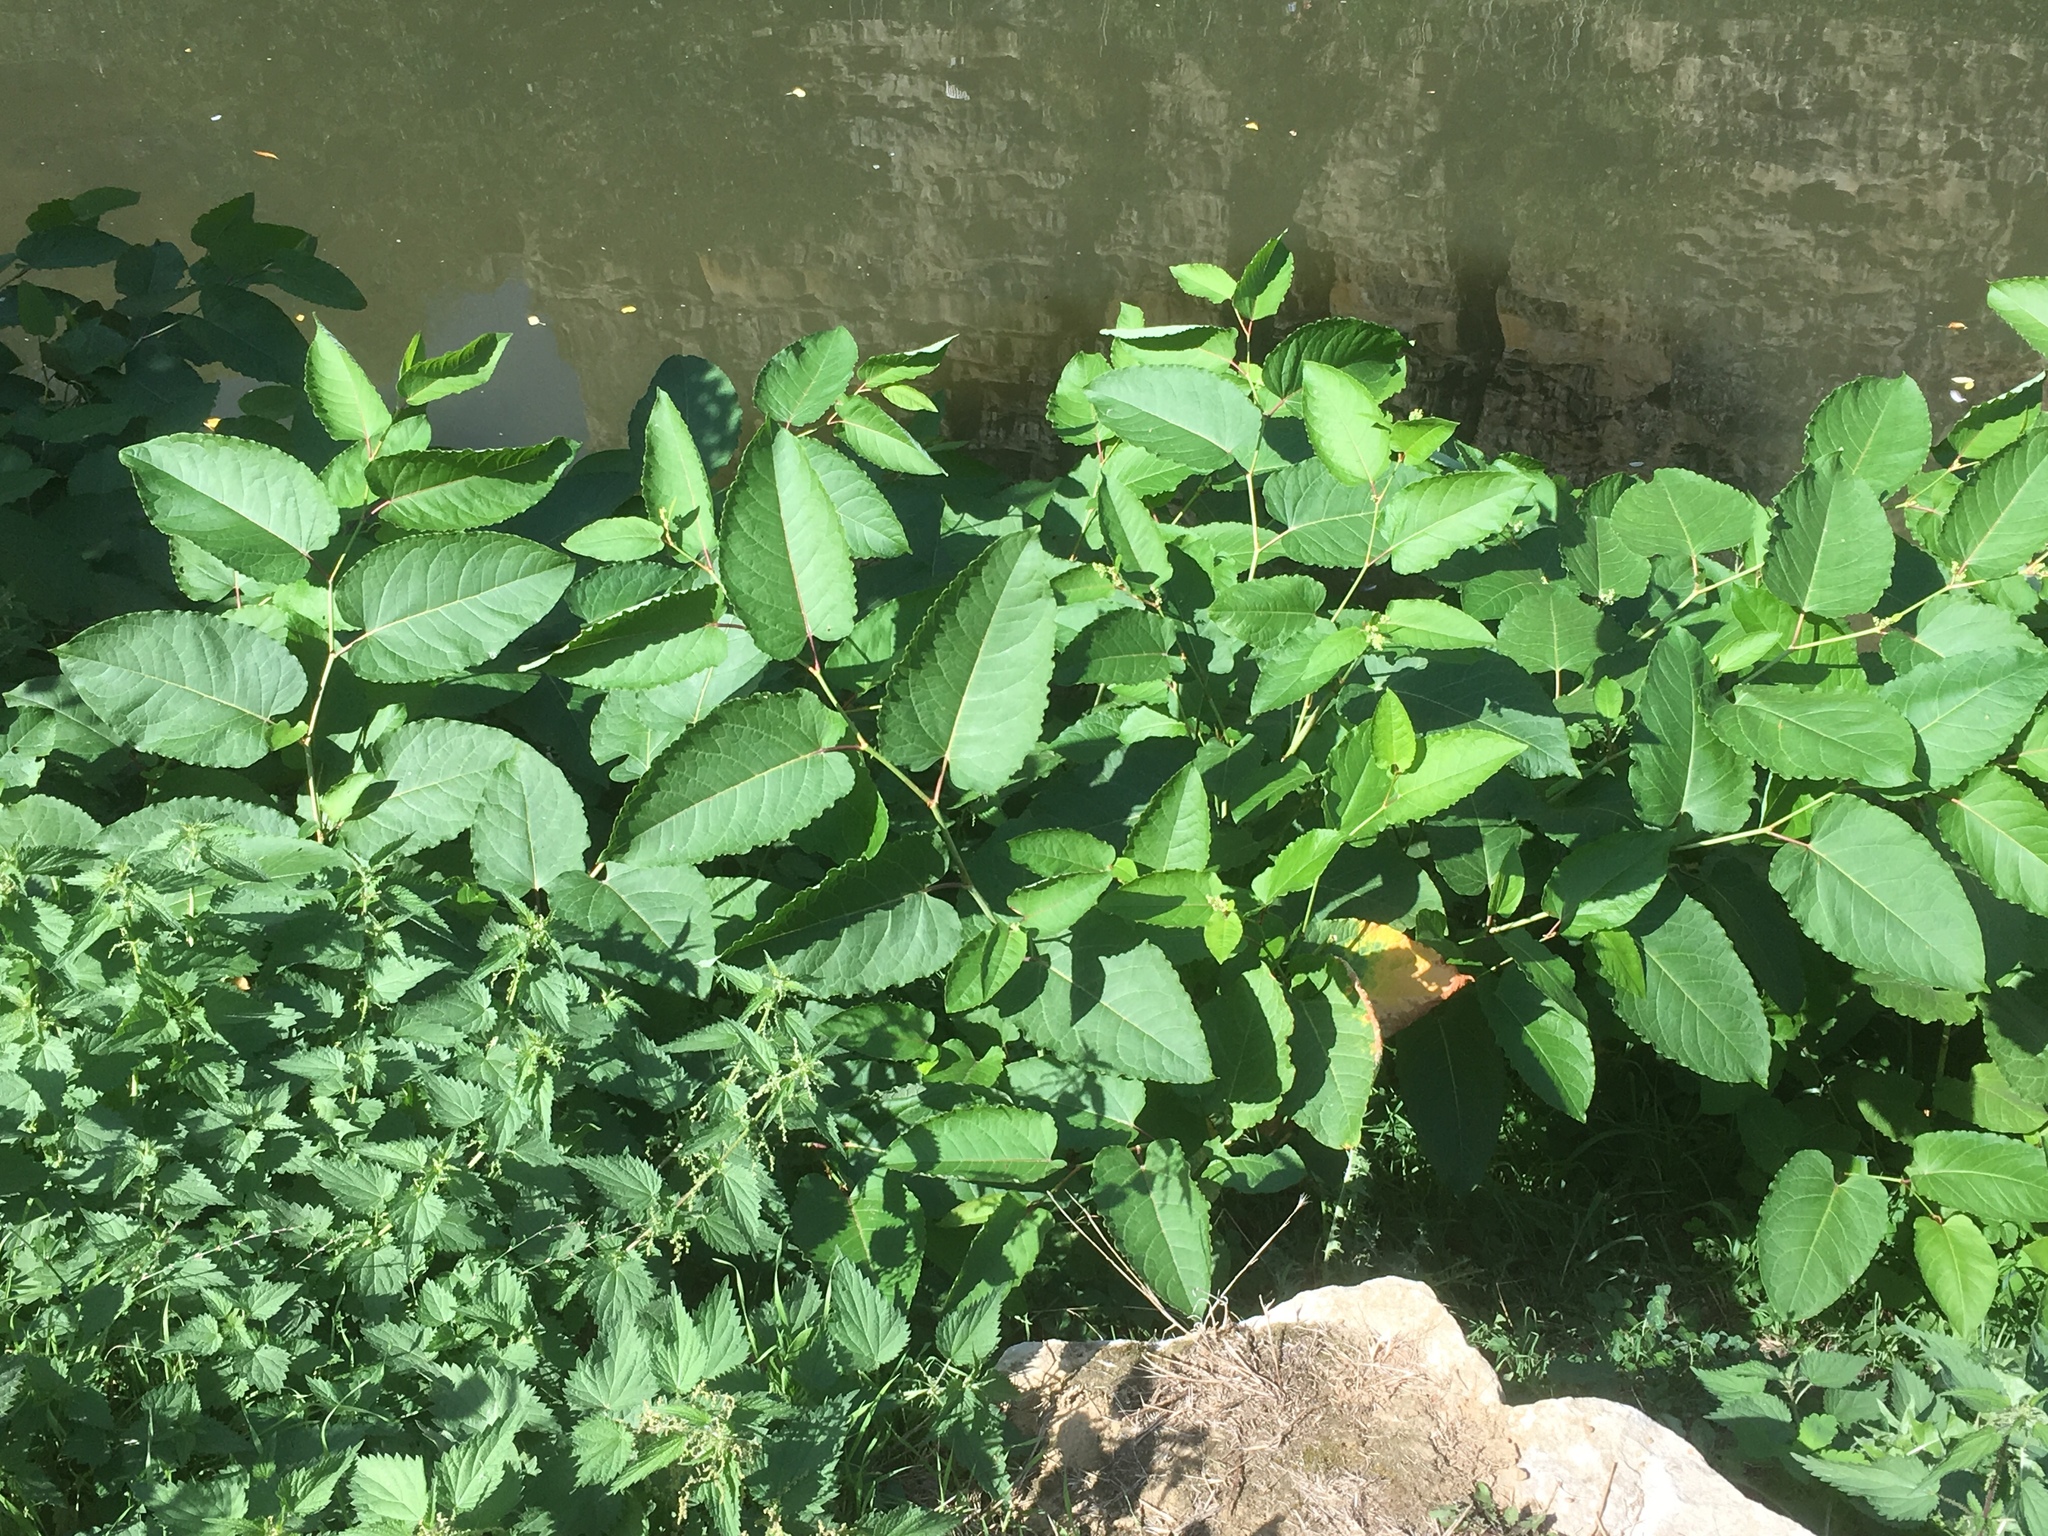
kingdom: Plantae
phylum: Tracheophyta
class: Magnoliopsida
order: Caryophyllales
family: Polygonaceae
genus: Reynoutria
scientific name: Reynoutria sachalinensis
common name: Giant knotweed
